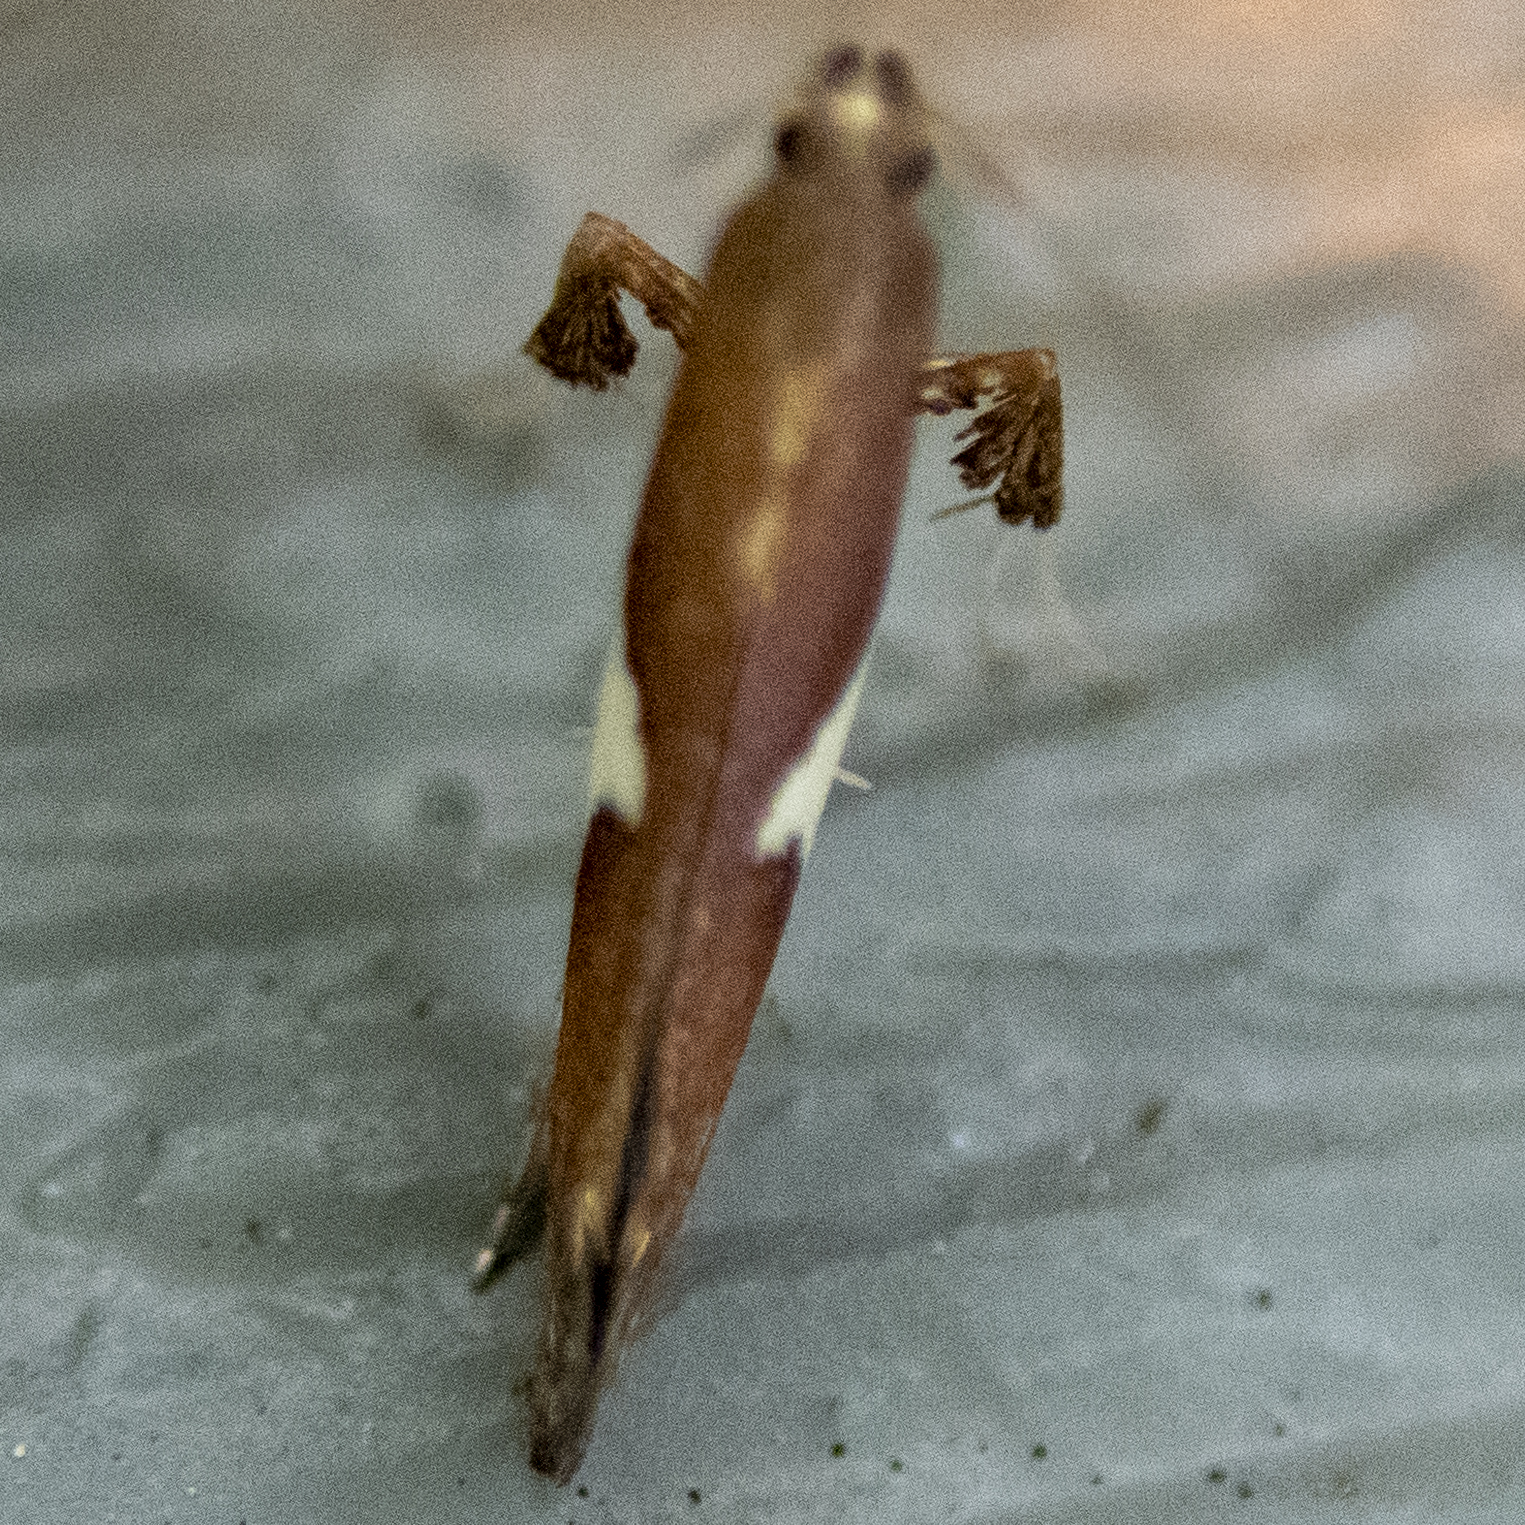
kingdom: Animalia
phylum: Arthropoda
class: Insecta
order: Lepidoptera
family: Gracillariidae
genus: Caloptilia
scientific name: Caloptilia stigmatella
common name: White-triangle slender
